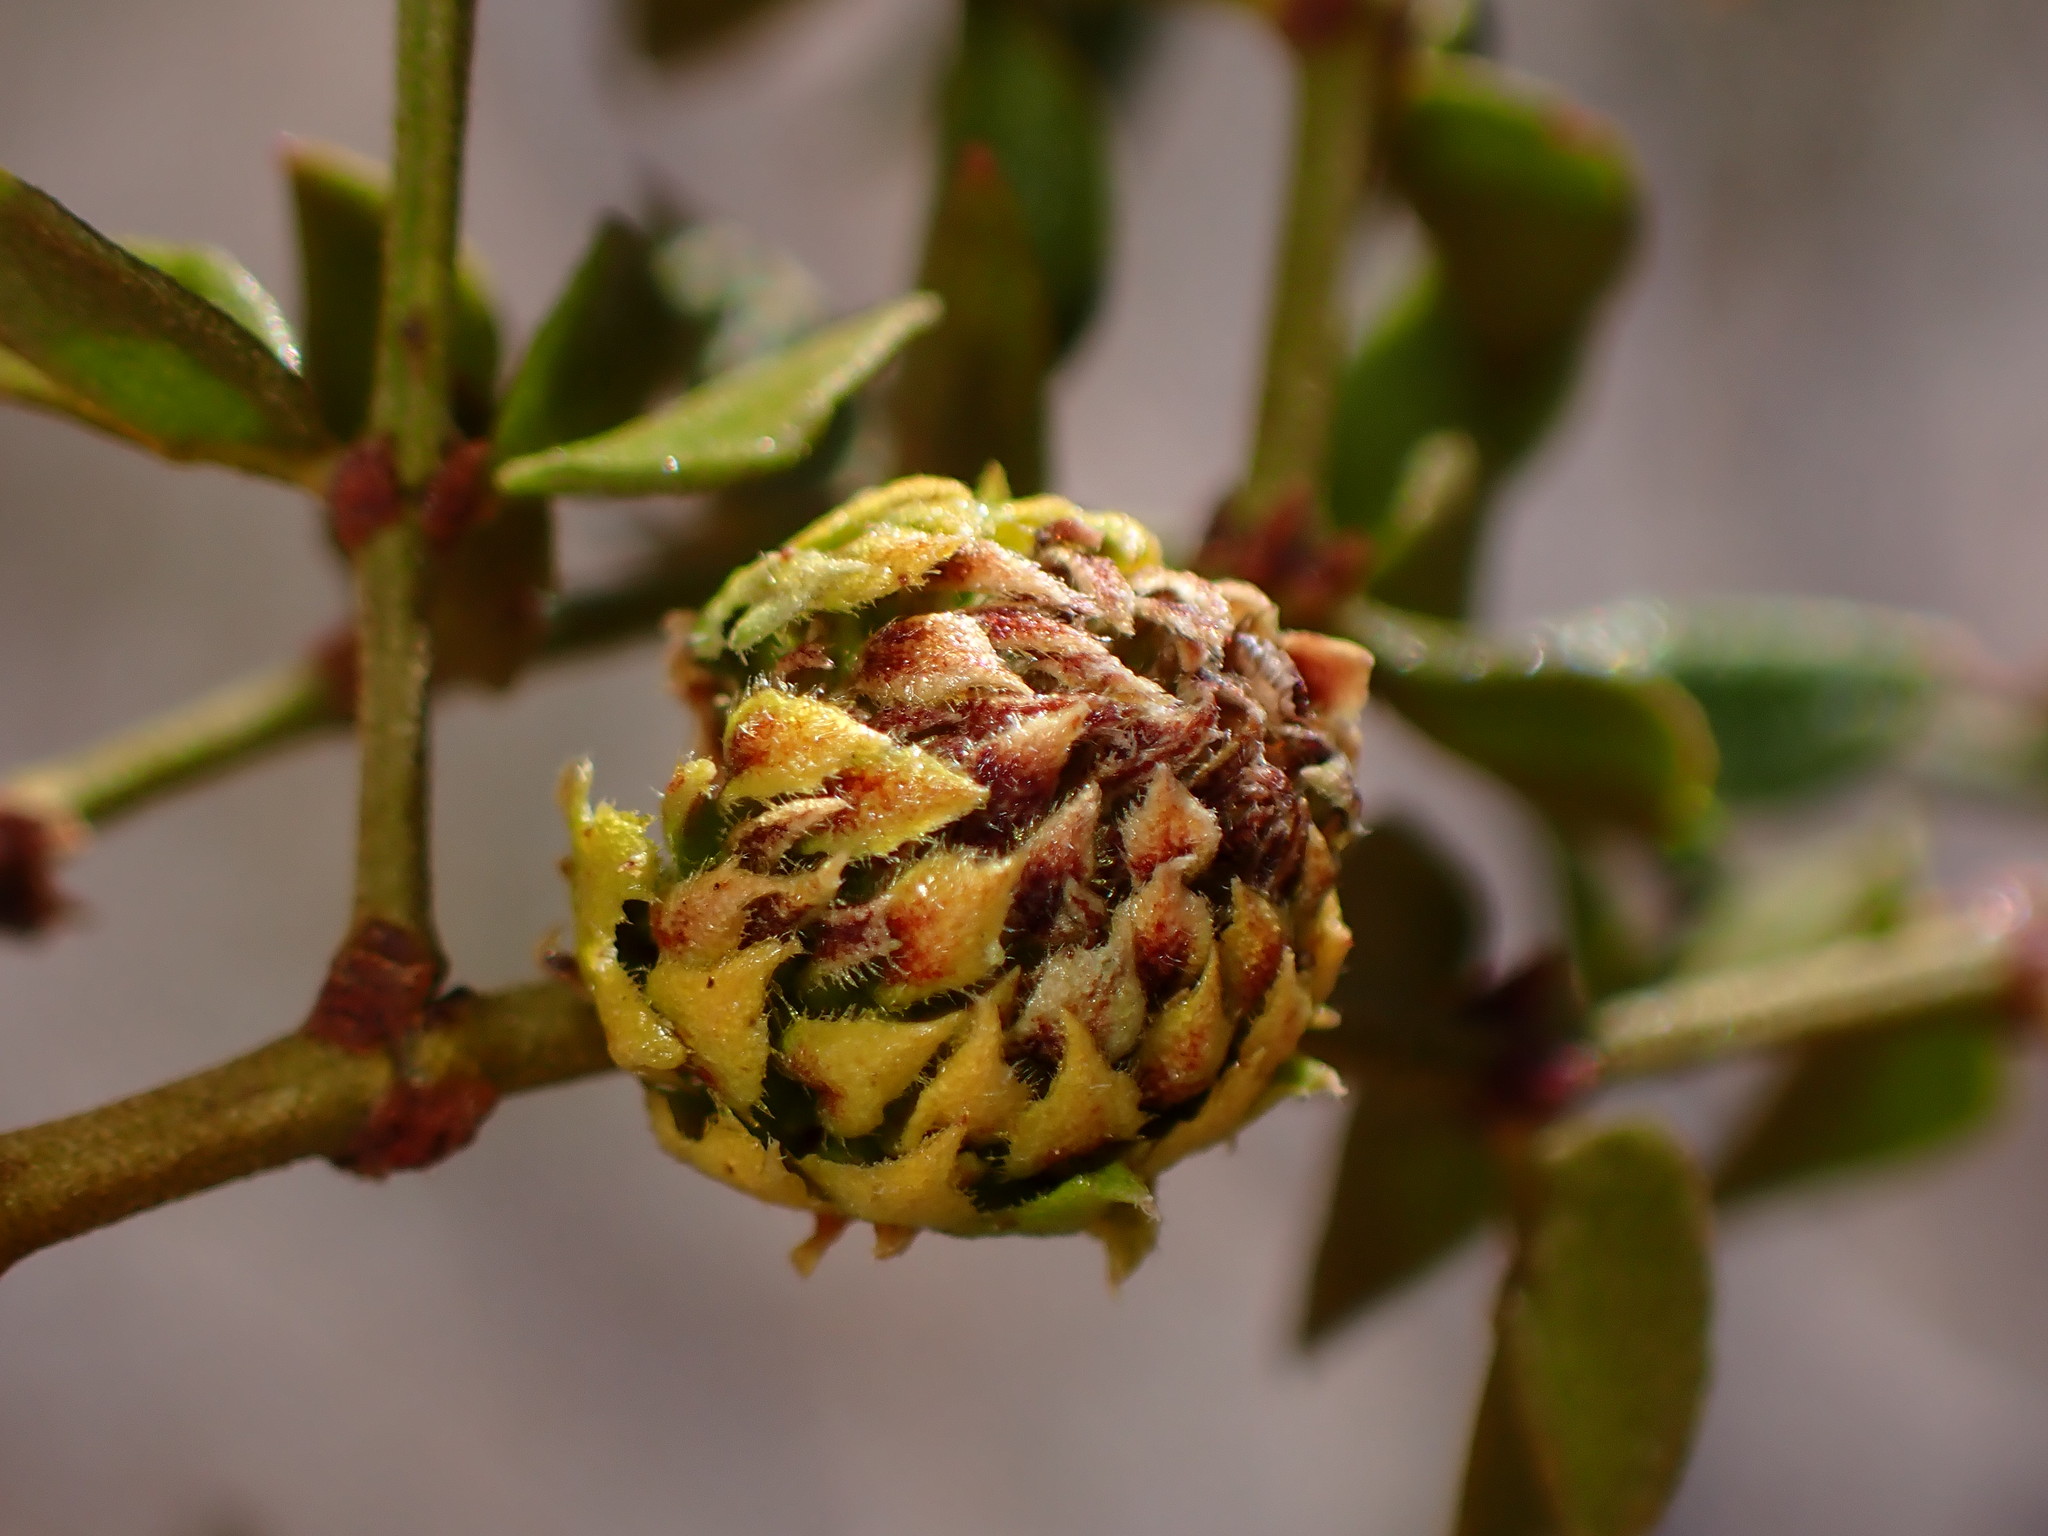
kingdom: Animalia
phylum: Arthropoda
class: Insecta
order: Diptera
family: Cecidomyiidae
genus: Asphondylia
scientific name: Asphondylia foliosa
